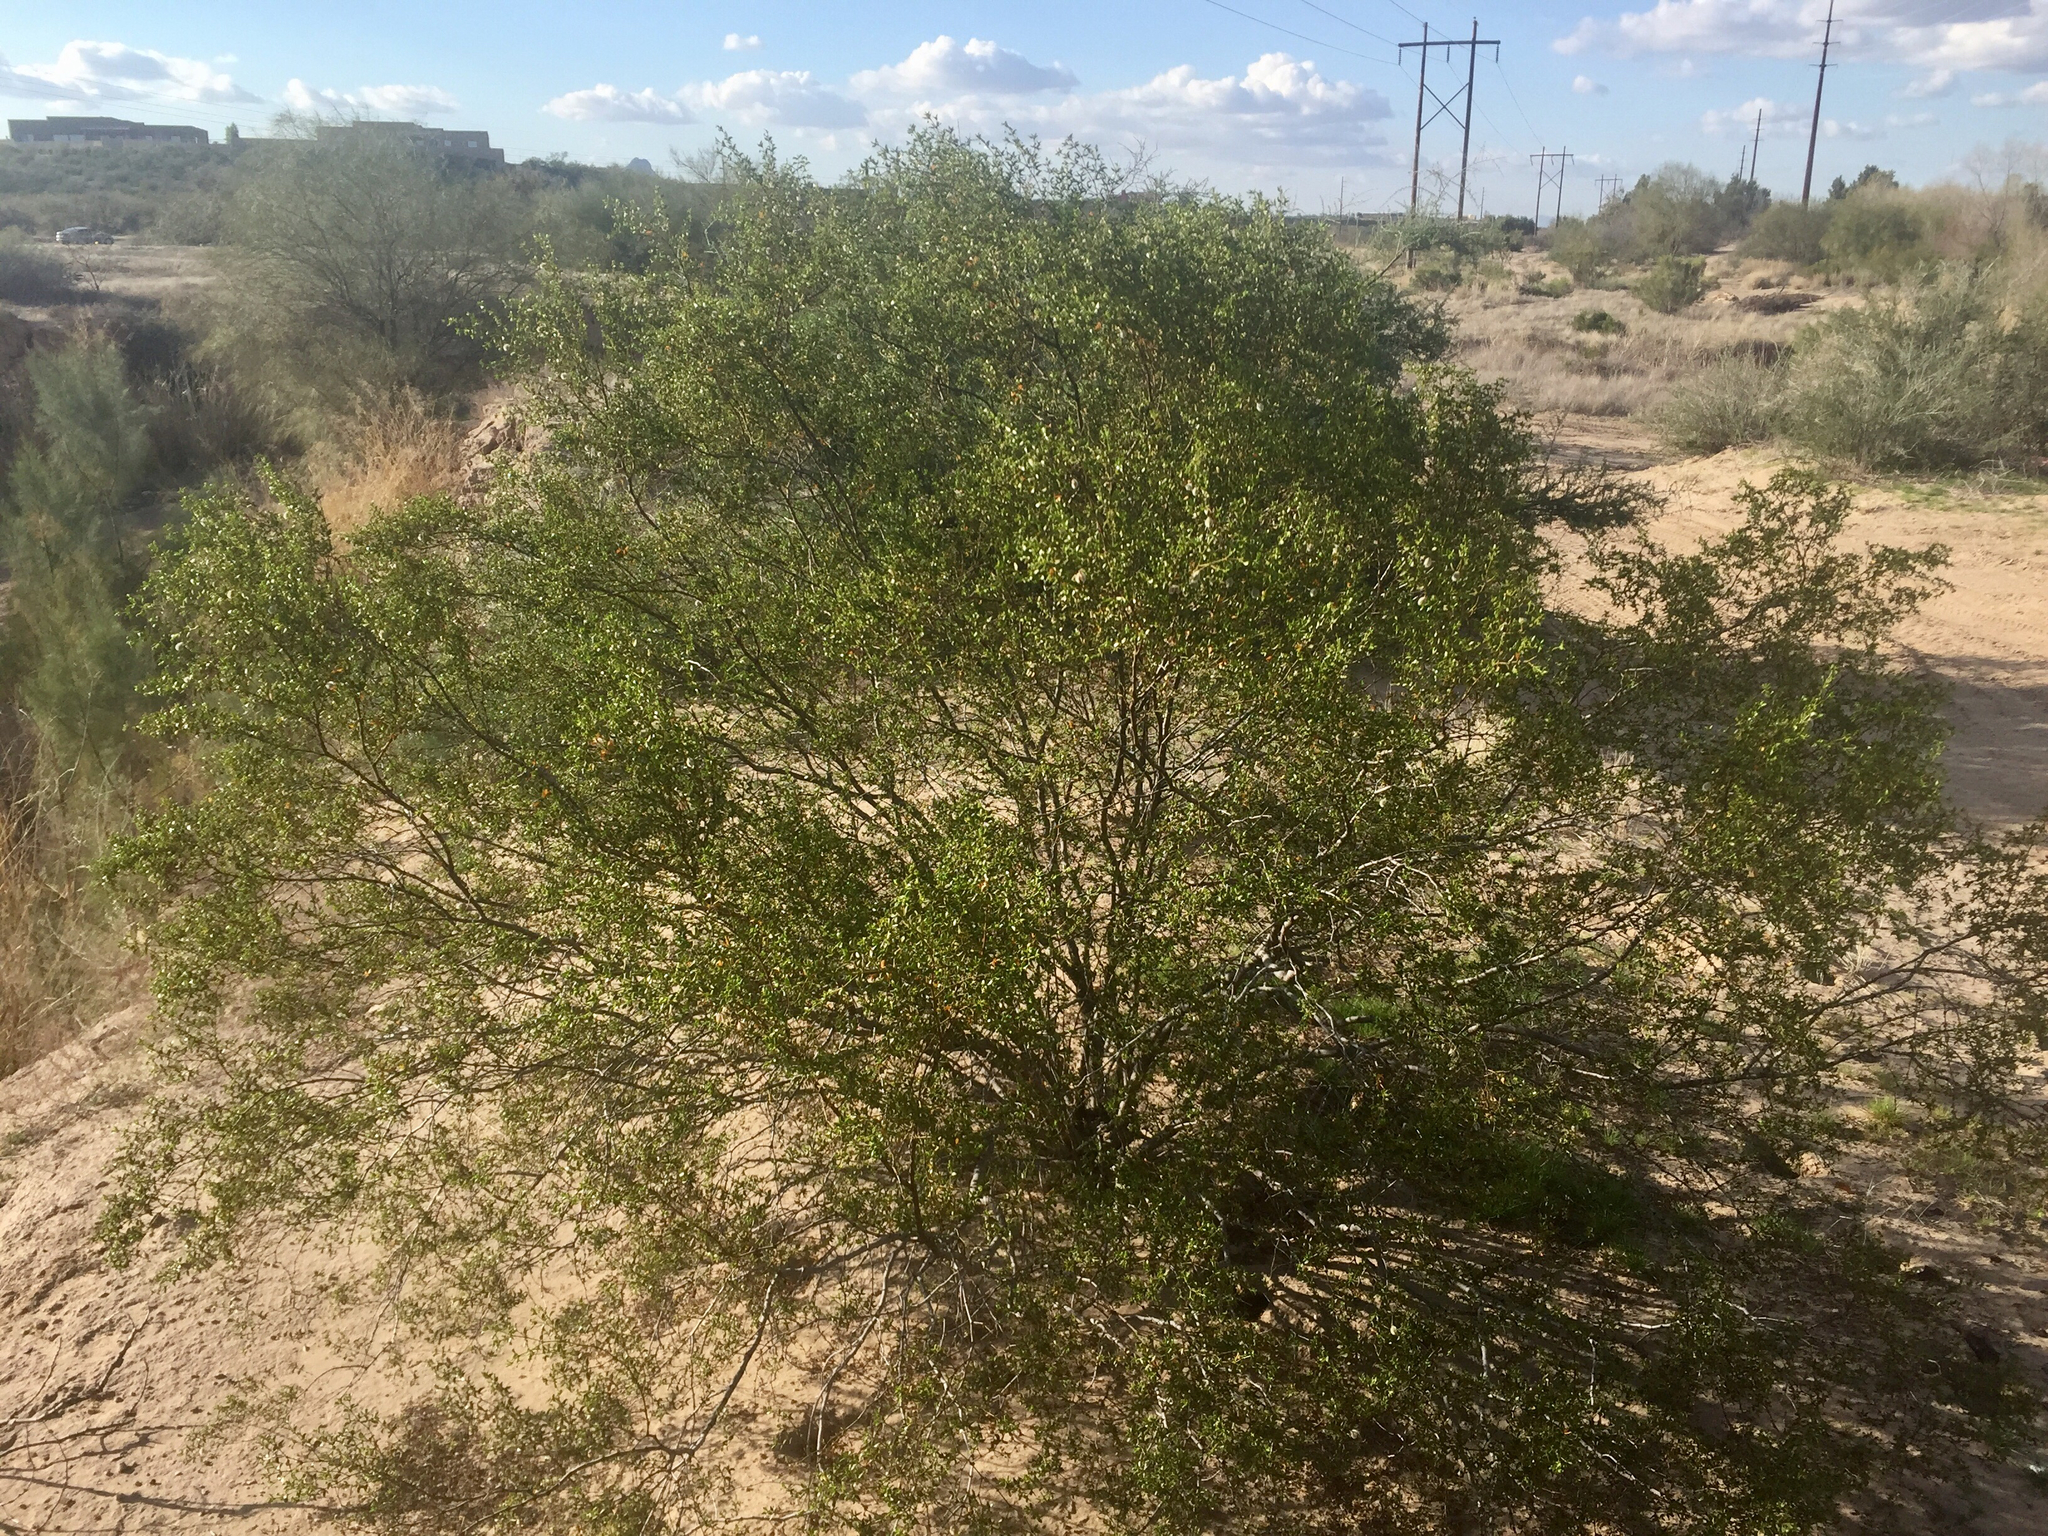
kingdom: Plantae
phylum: Tracheophyta
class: Magnoliopsida
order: Zygophyllales
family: Zygophyllaceae
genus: Larrea
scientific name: Larrea tridentata
